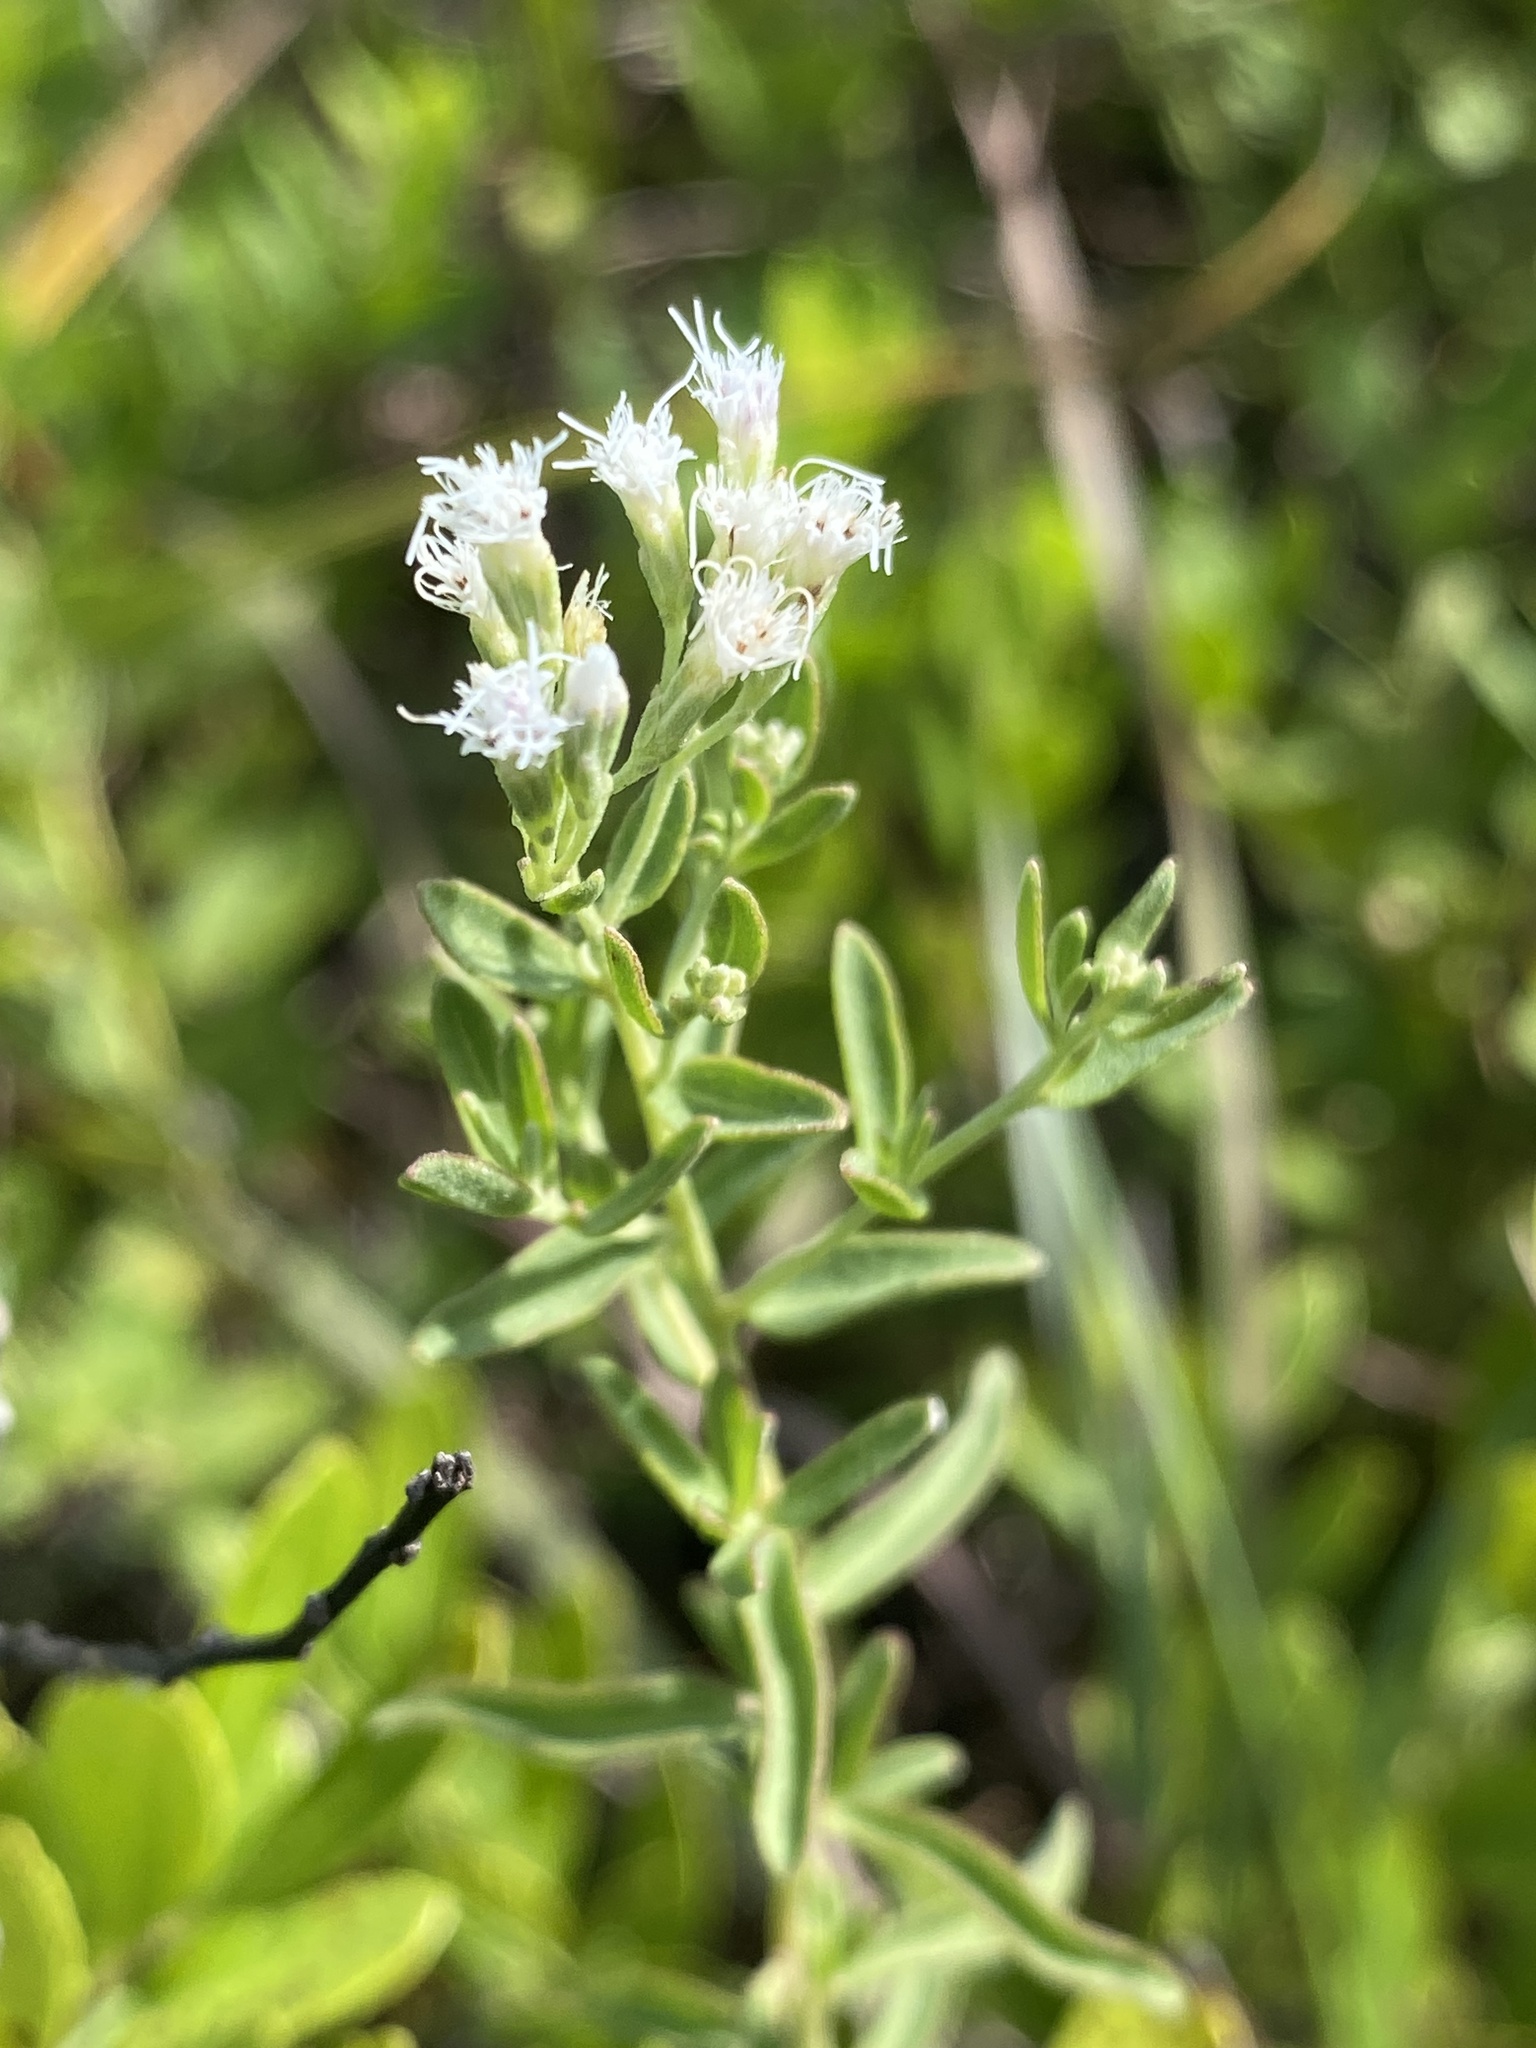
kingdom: Plantae
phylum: Tracheophyta
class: Magnoliopsida
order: Asterales
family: Asteraceae
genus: Eupatorium
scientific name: Eupatorium mohrii
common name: Mohr's thoroughwort
